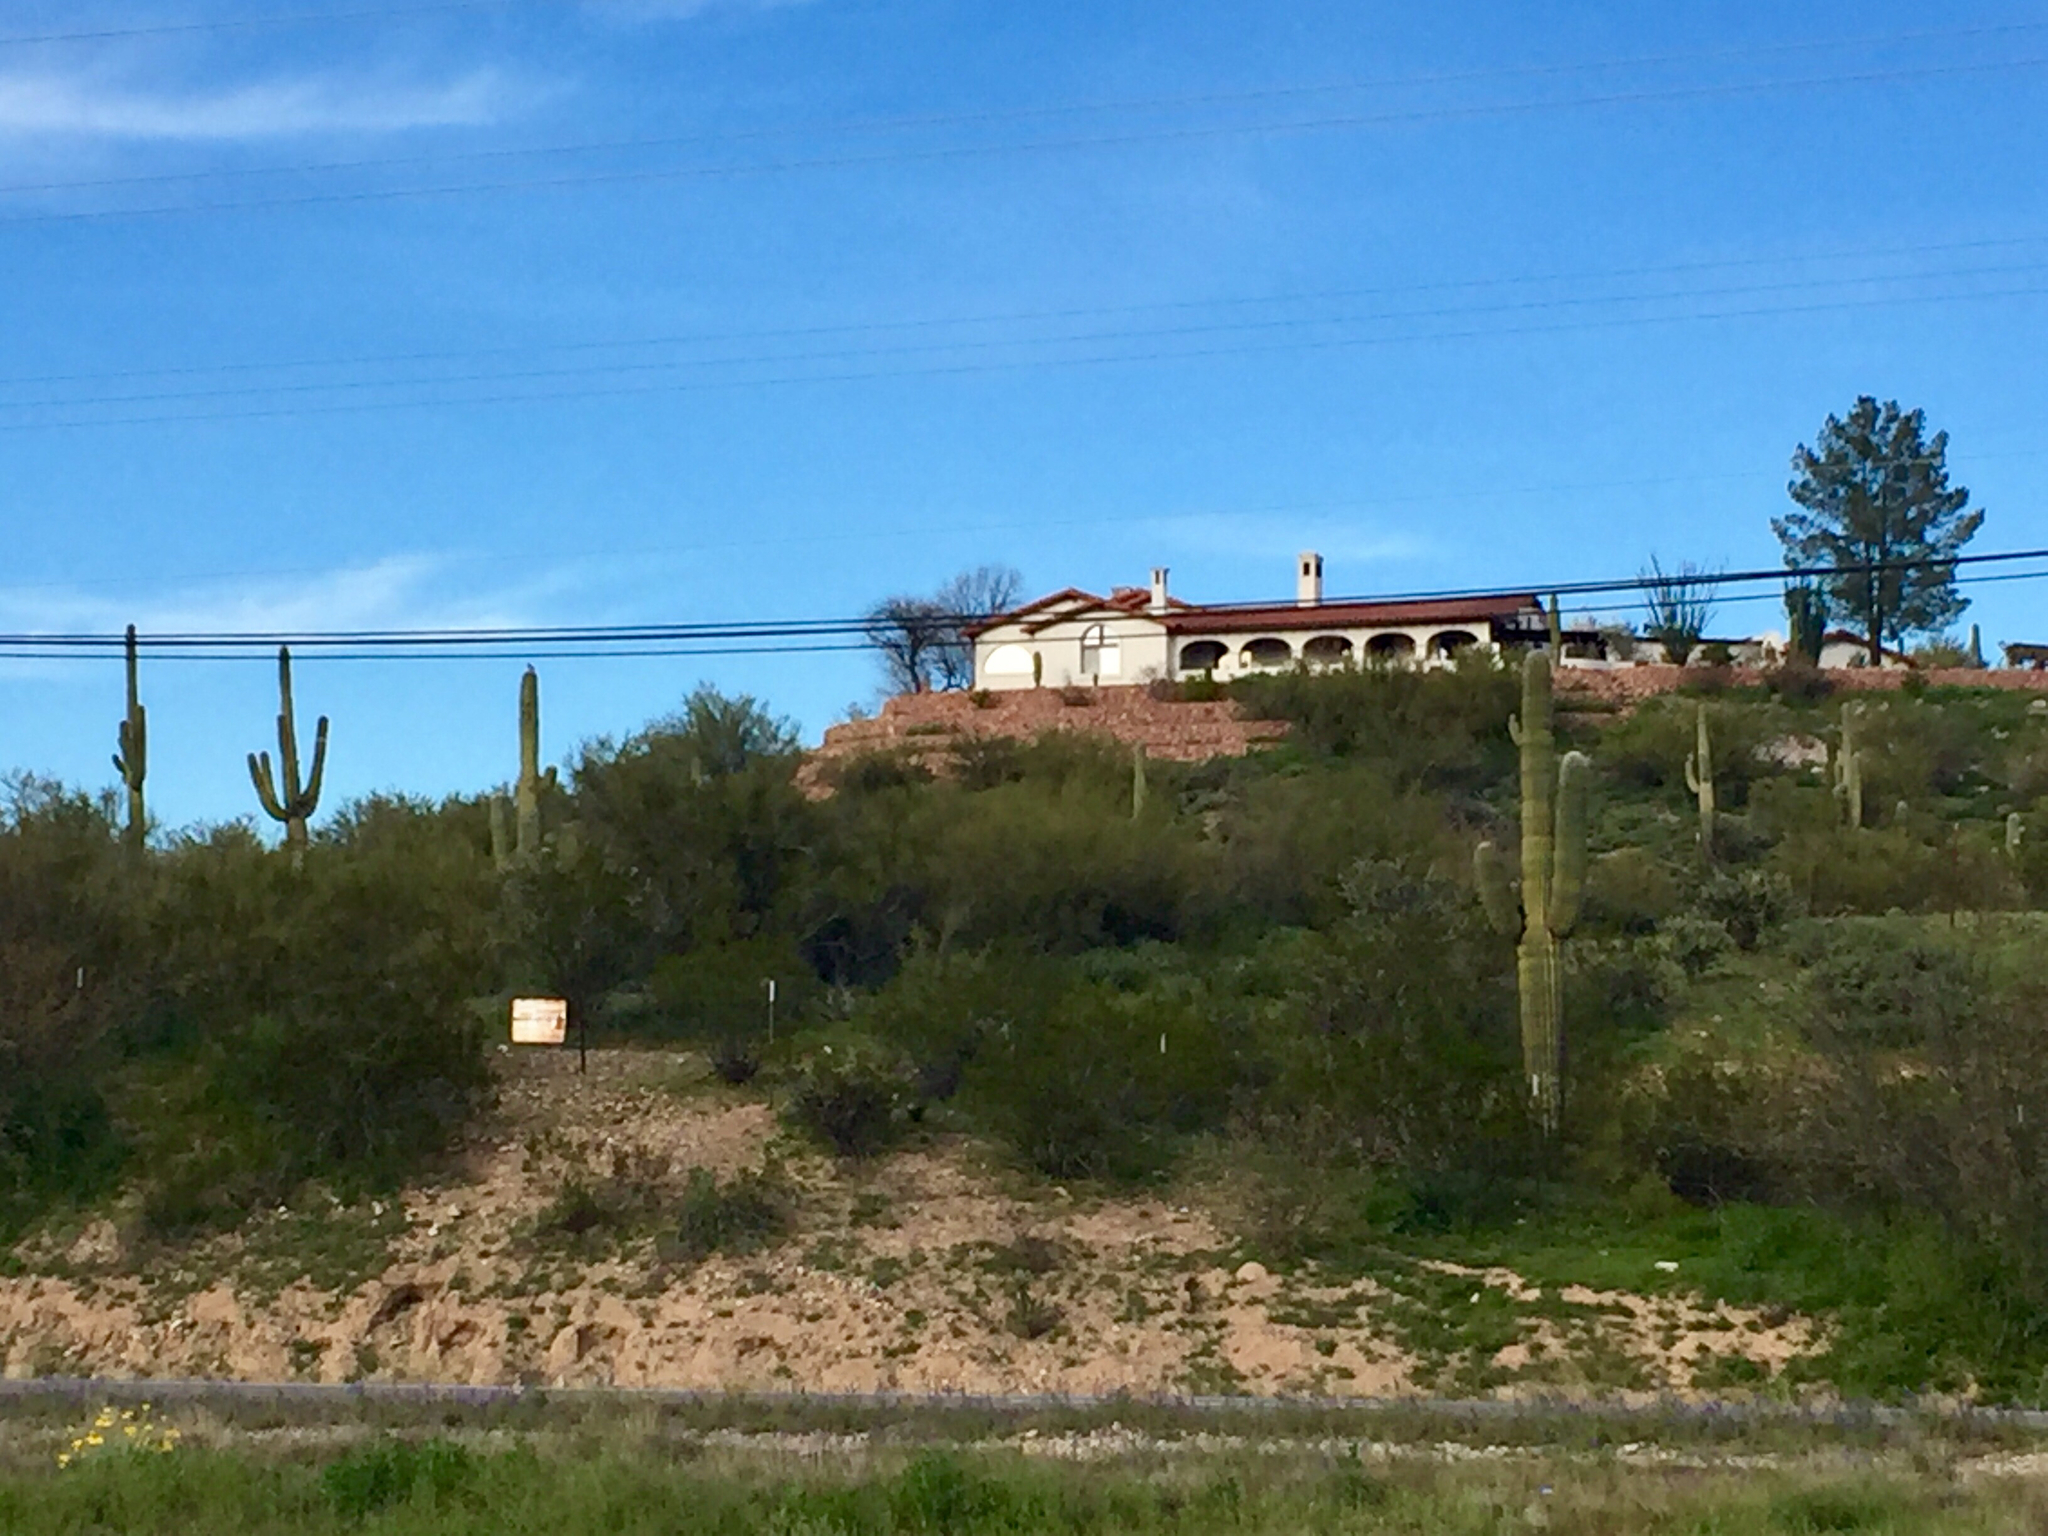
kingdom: Plantae
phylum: Tracheophyta
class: Magnoliopsida
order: Caryophyllales
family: Cactaceae
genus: Carnegiea
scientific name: Carnegiea gigantea
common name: Saguaro
